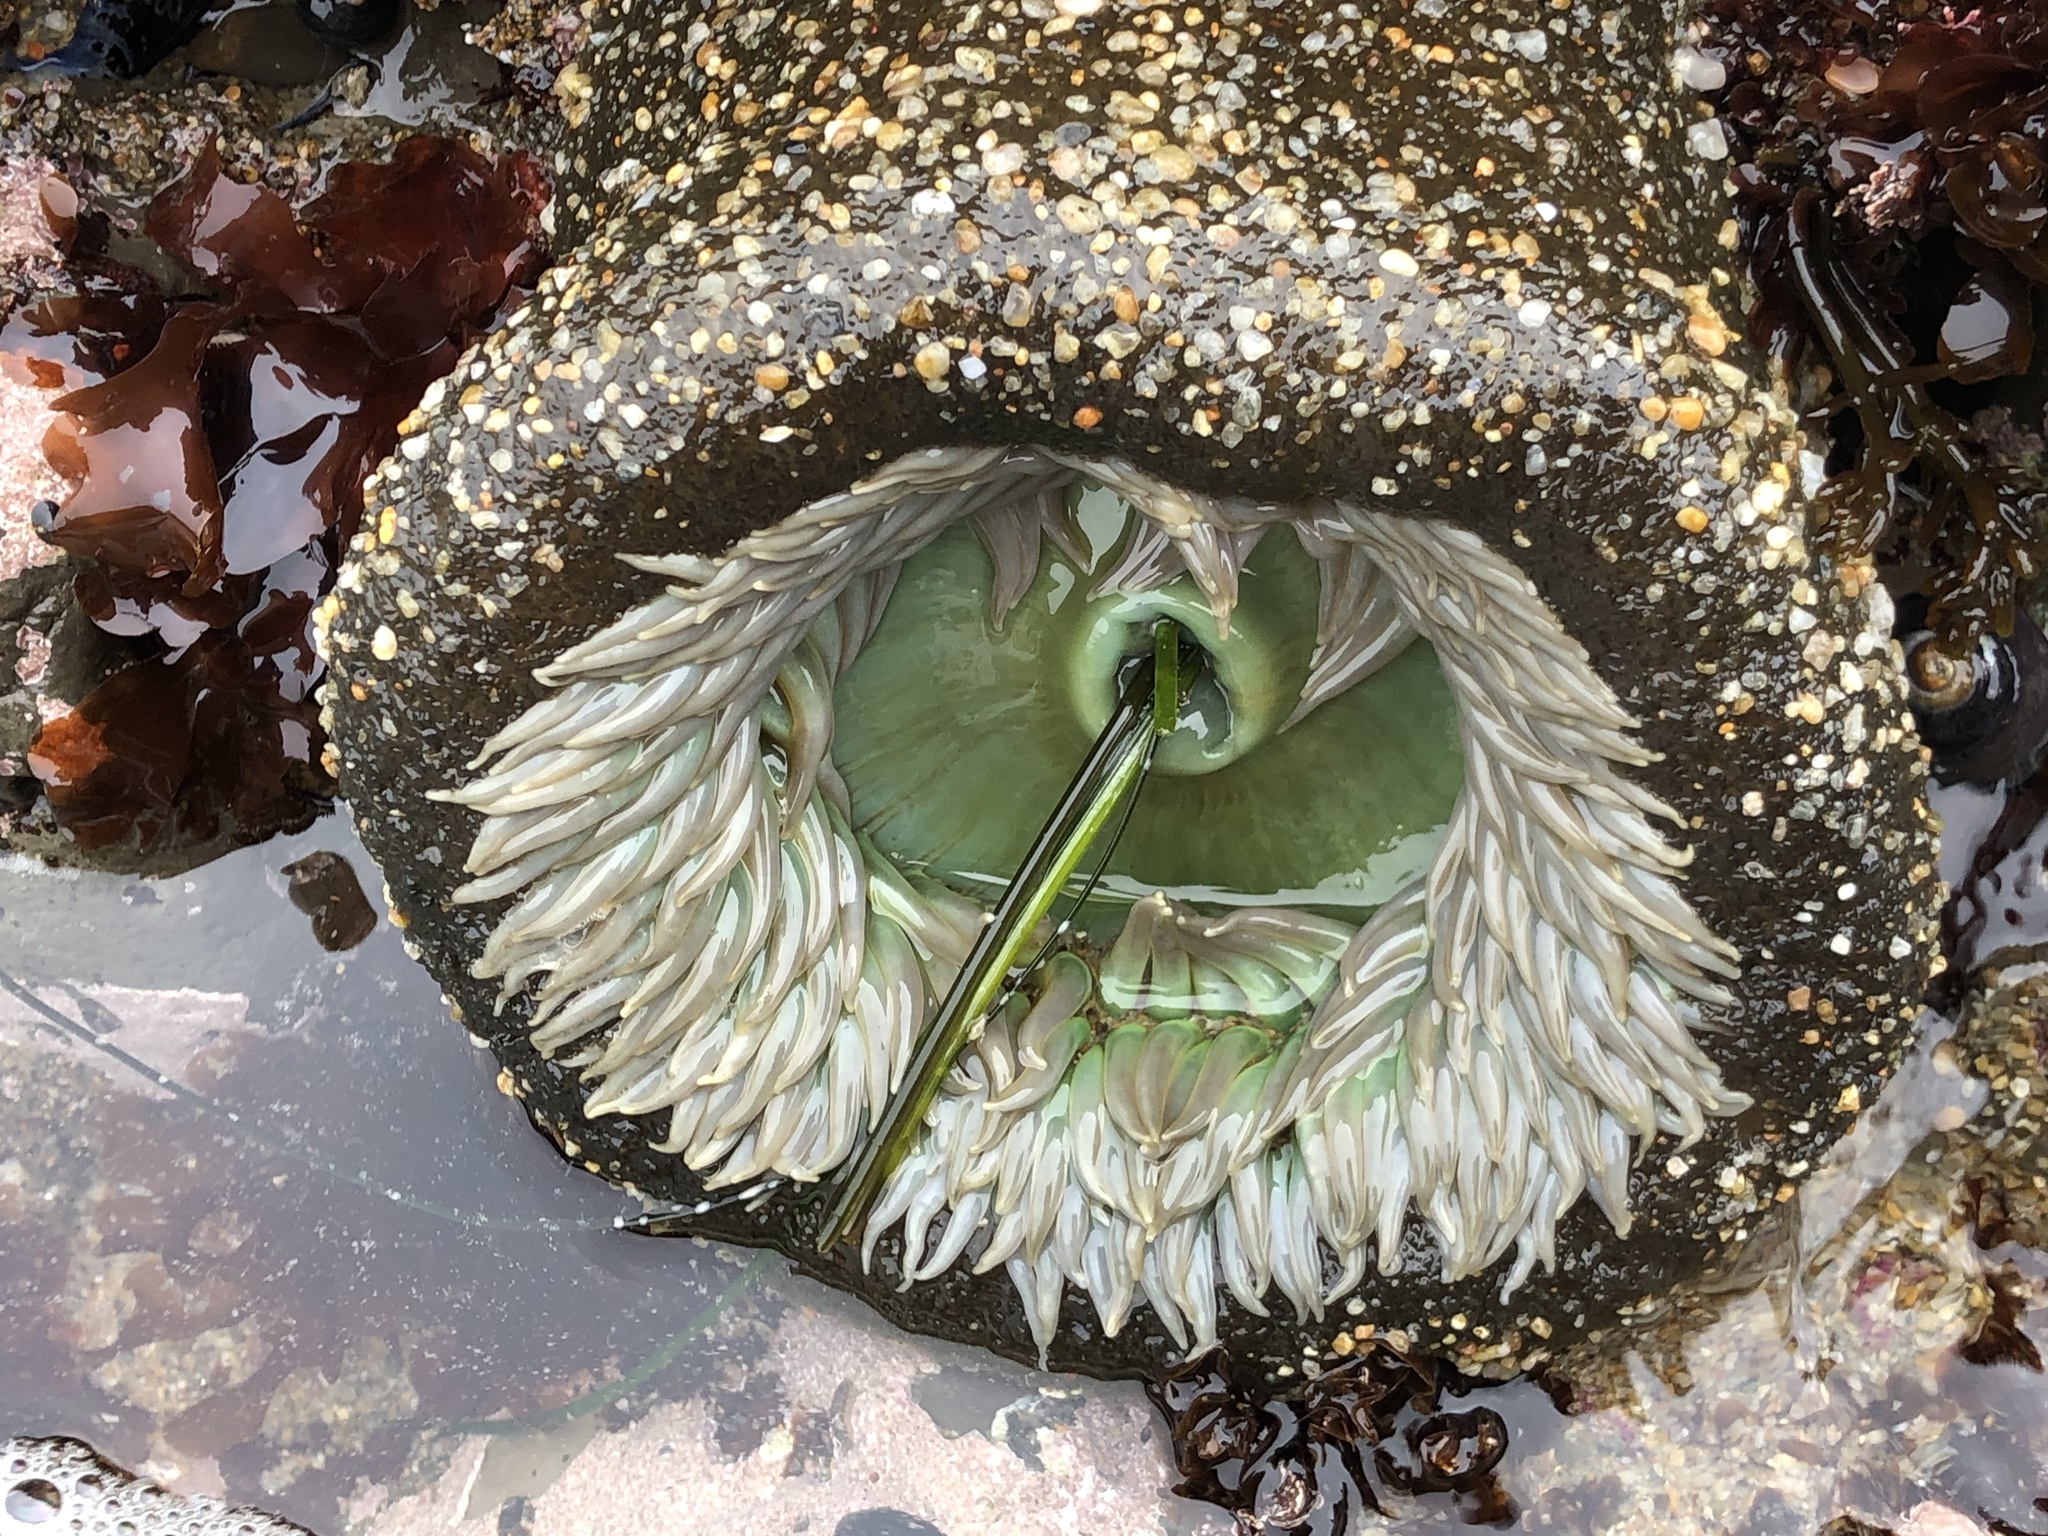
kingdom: Animalia
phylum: Cnidaria
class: Anthozoa
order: Actiniaria
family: Actiniidae
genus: Anthopleura
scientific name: Anthopleura xanthogrammica
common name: Giant green anemone
